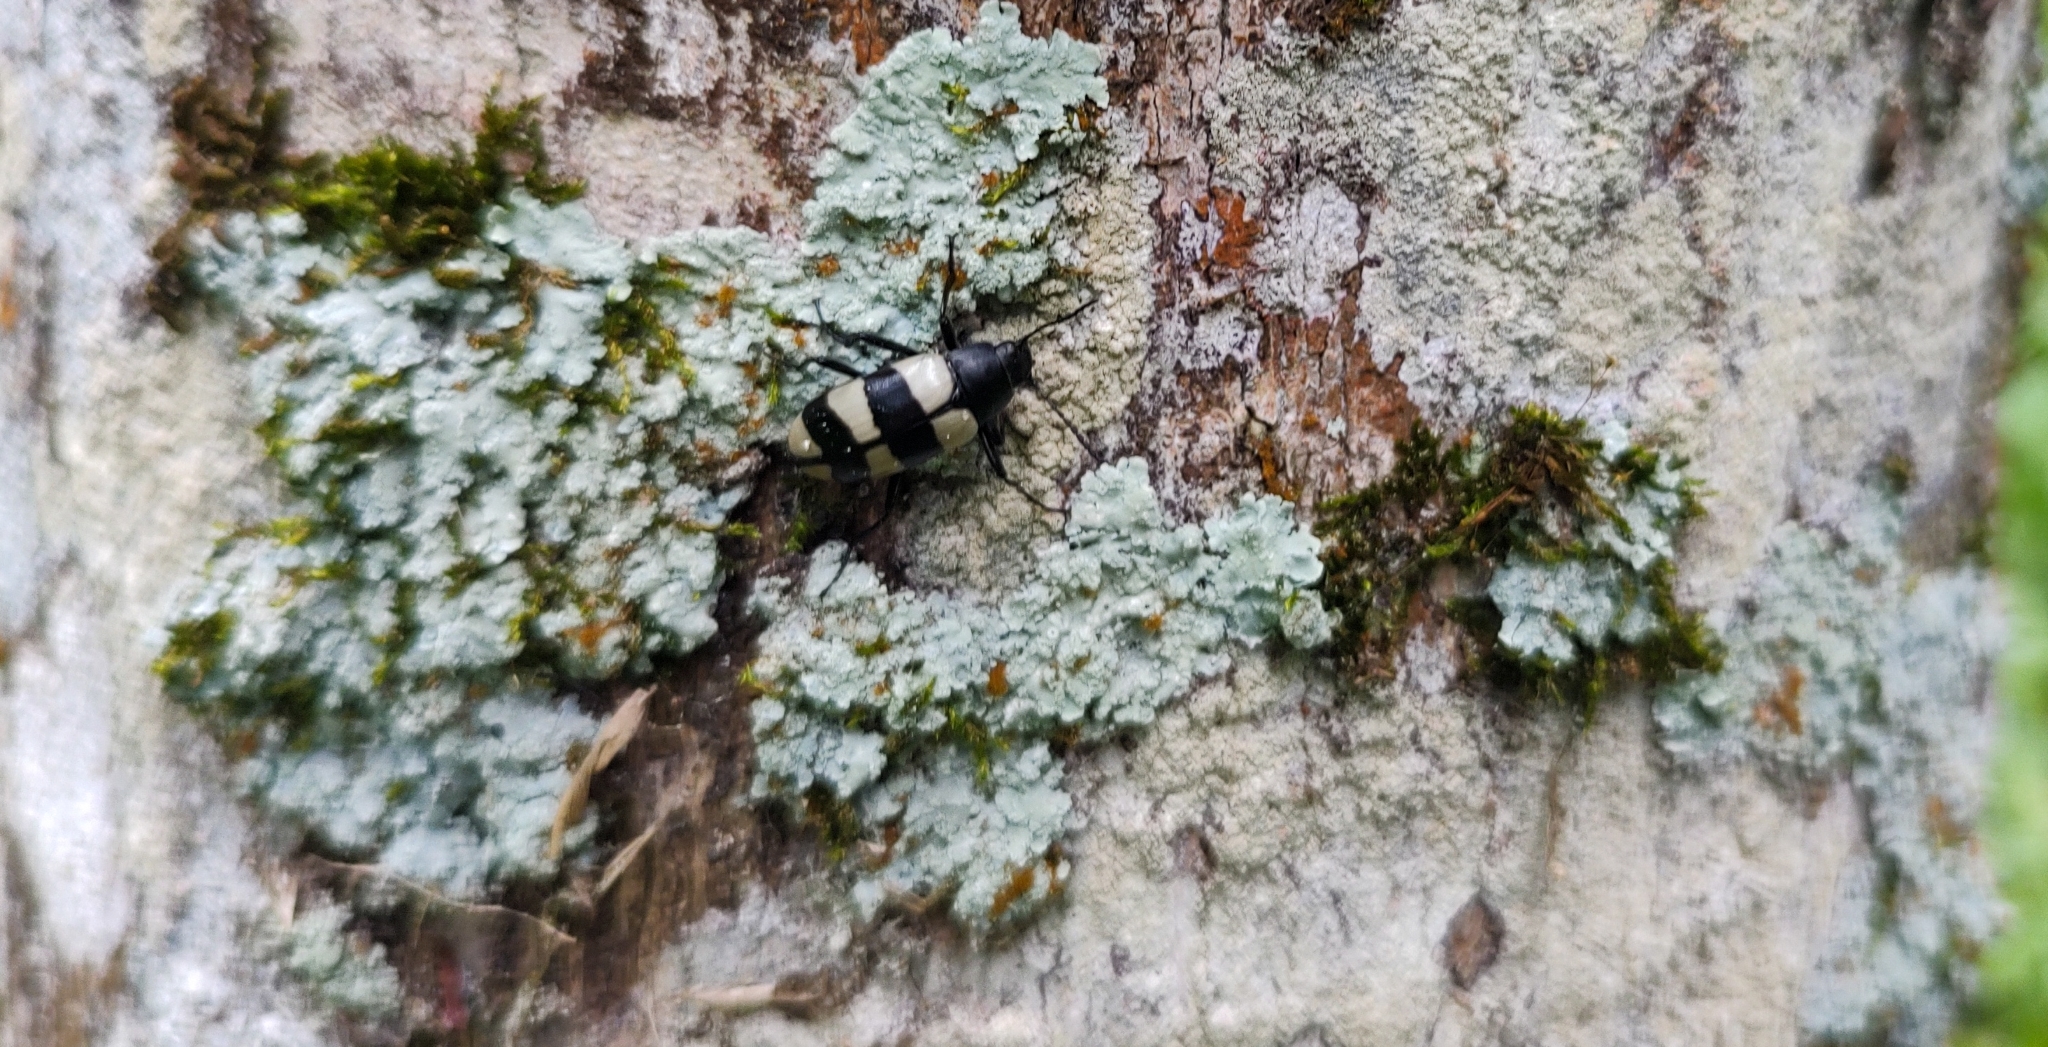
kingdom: Animalia
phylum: Arthropoda
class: Insecta
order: Coleoptera
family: Tenebrionidae
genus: Poecilesthus
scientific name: Poecilesthus
